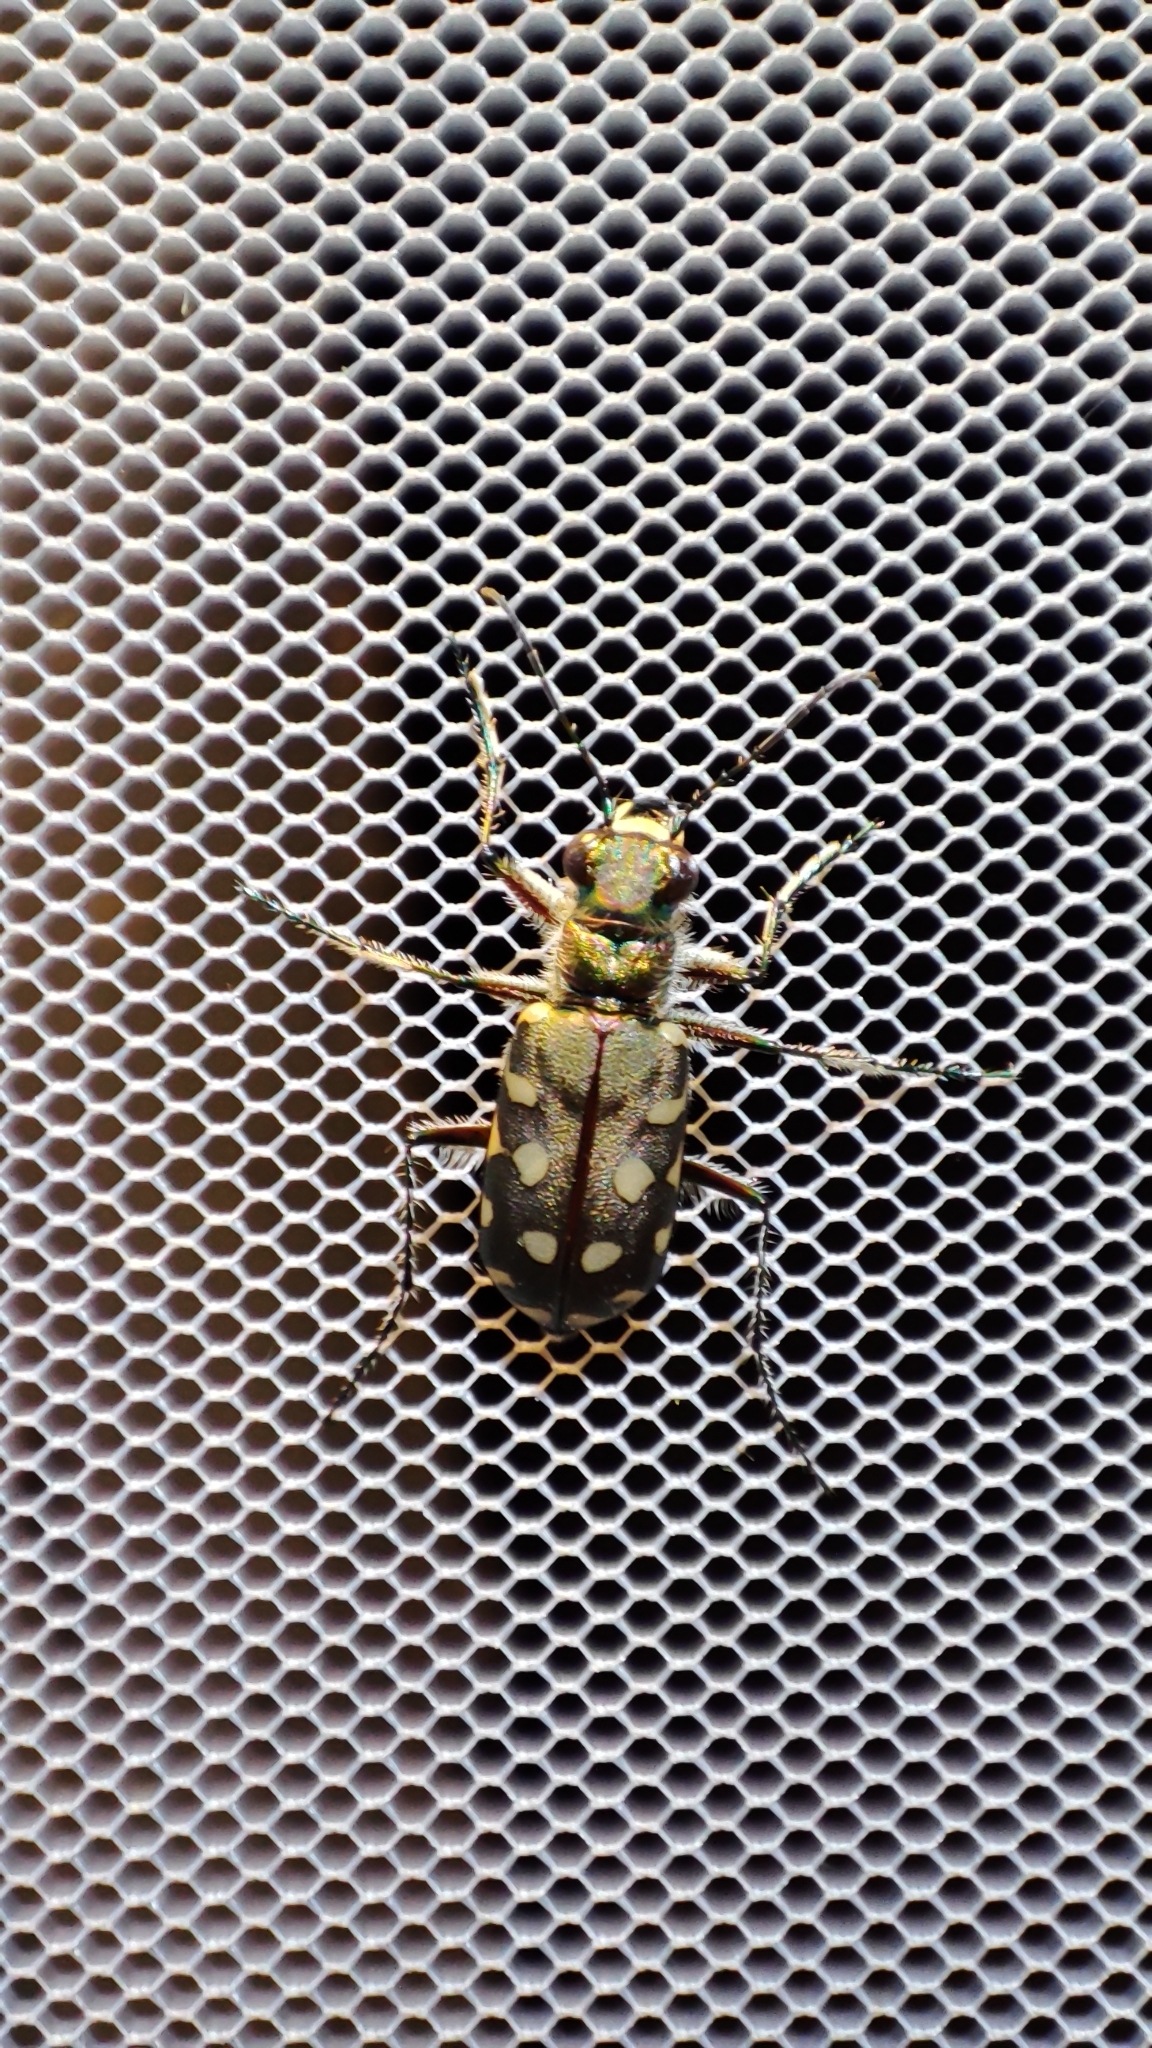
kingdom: Animalia
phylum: Arthropoda
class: Insecta
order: Coleoptera
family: Carabidae
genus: Cicindela
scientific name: Cicindela littoralis
